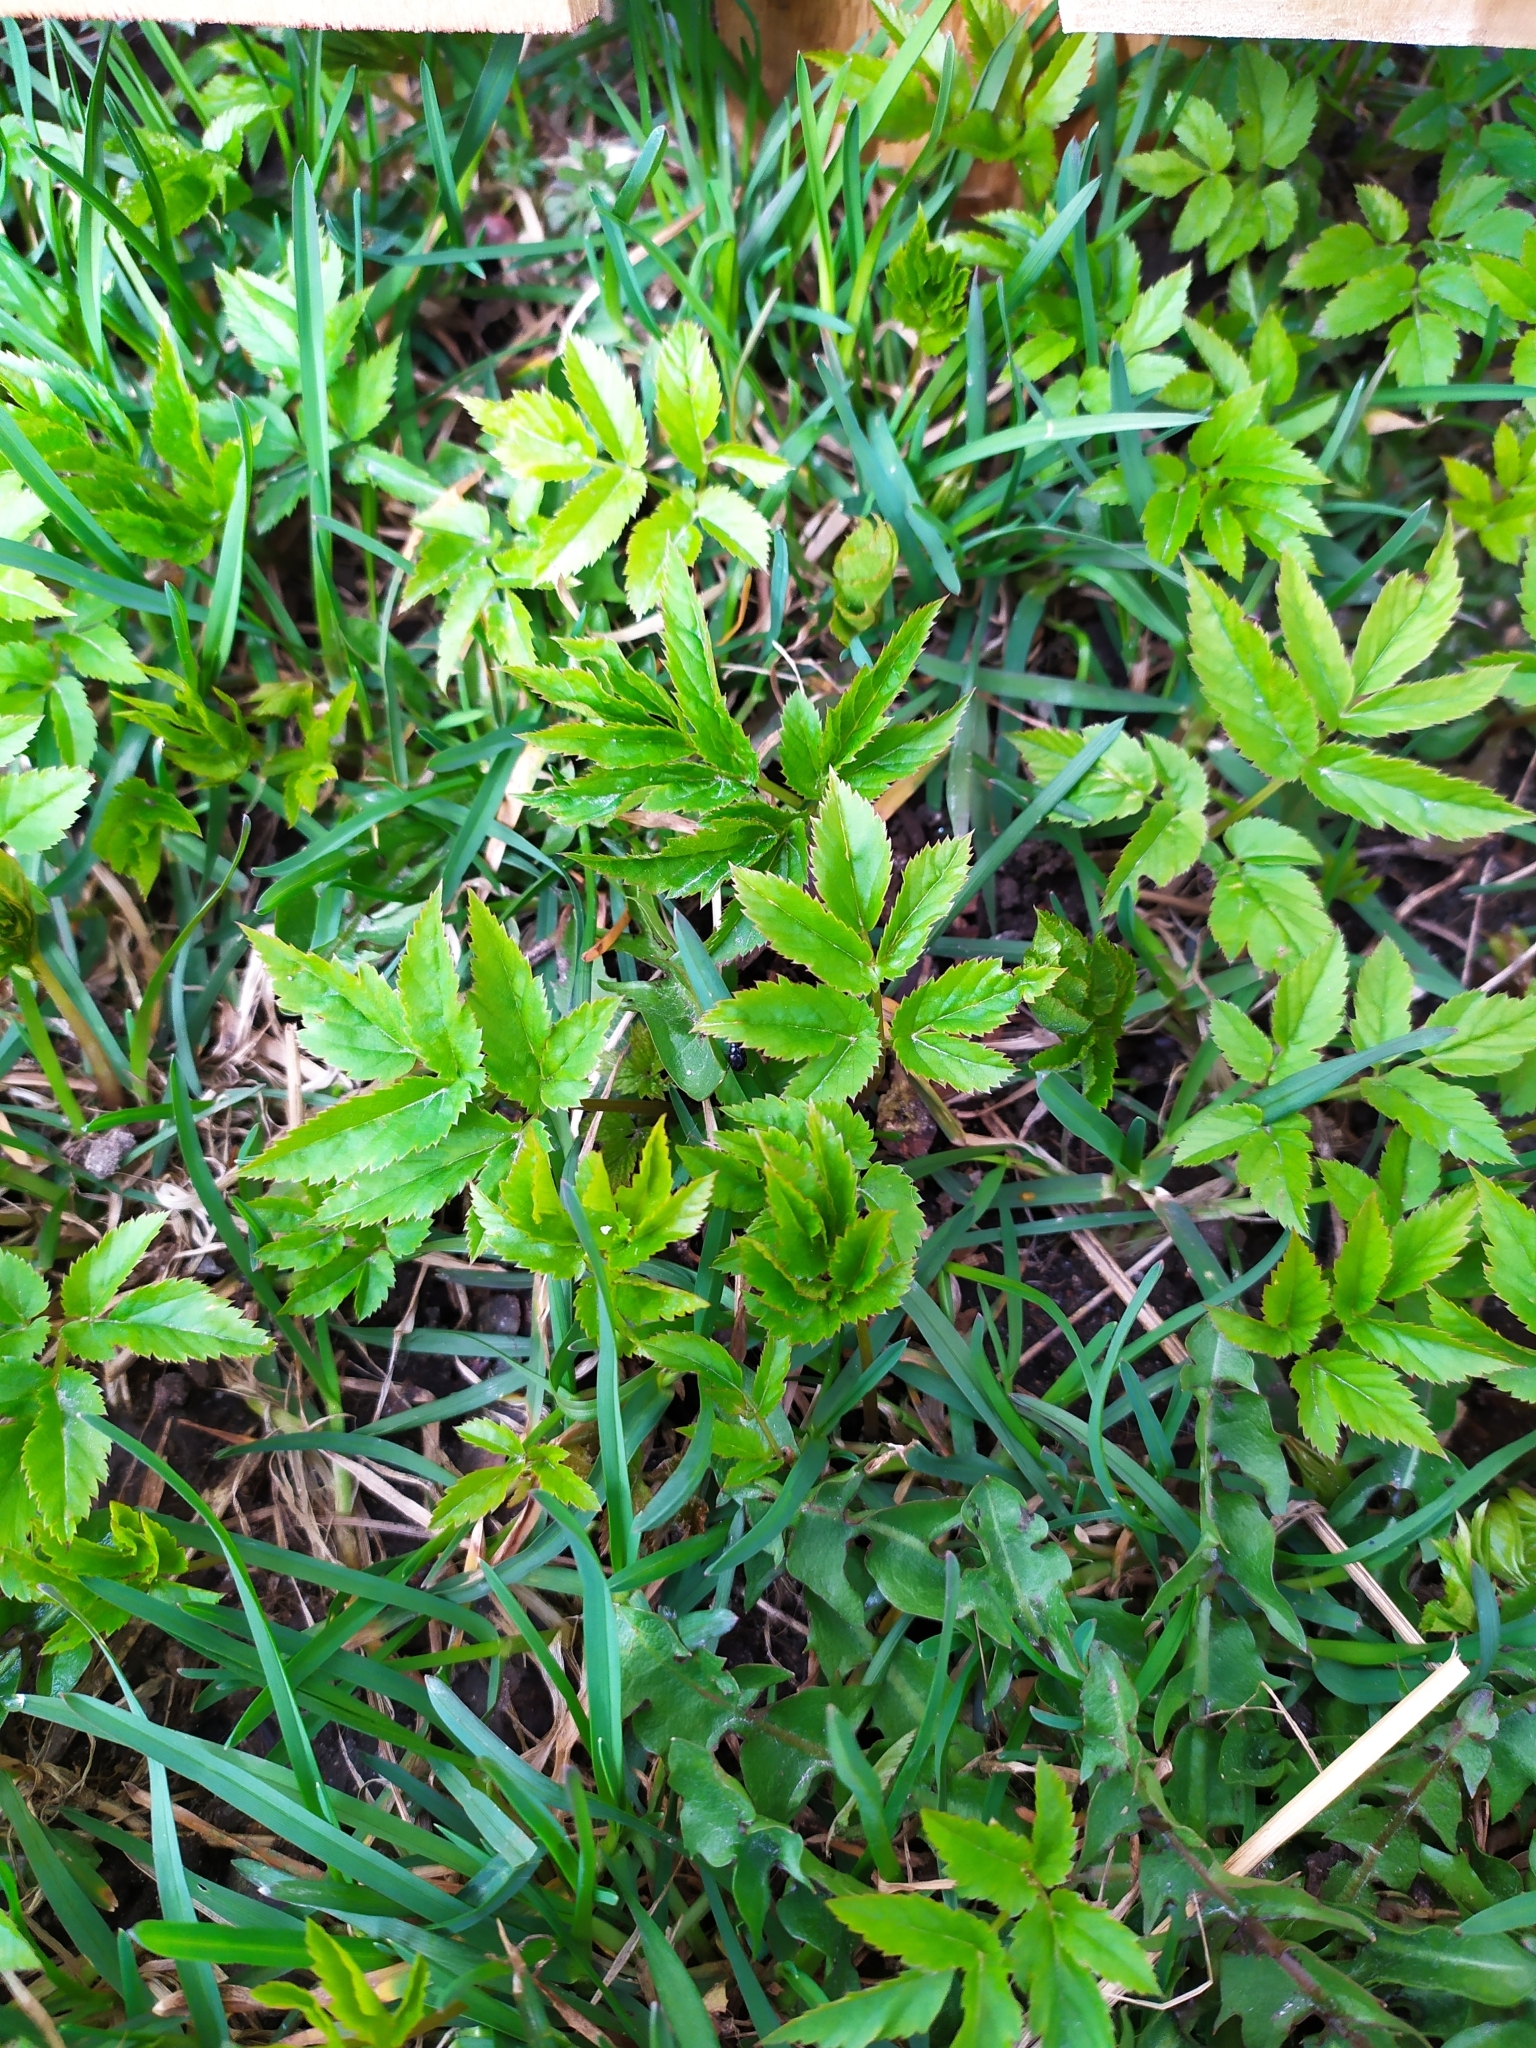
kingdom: Plantae
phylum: Tracheophyta
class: Magnoliopsida
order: Apiales
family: Apiaceae
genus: Aegopodium
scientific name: Aegopodium podagraria
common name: Ground-elder
